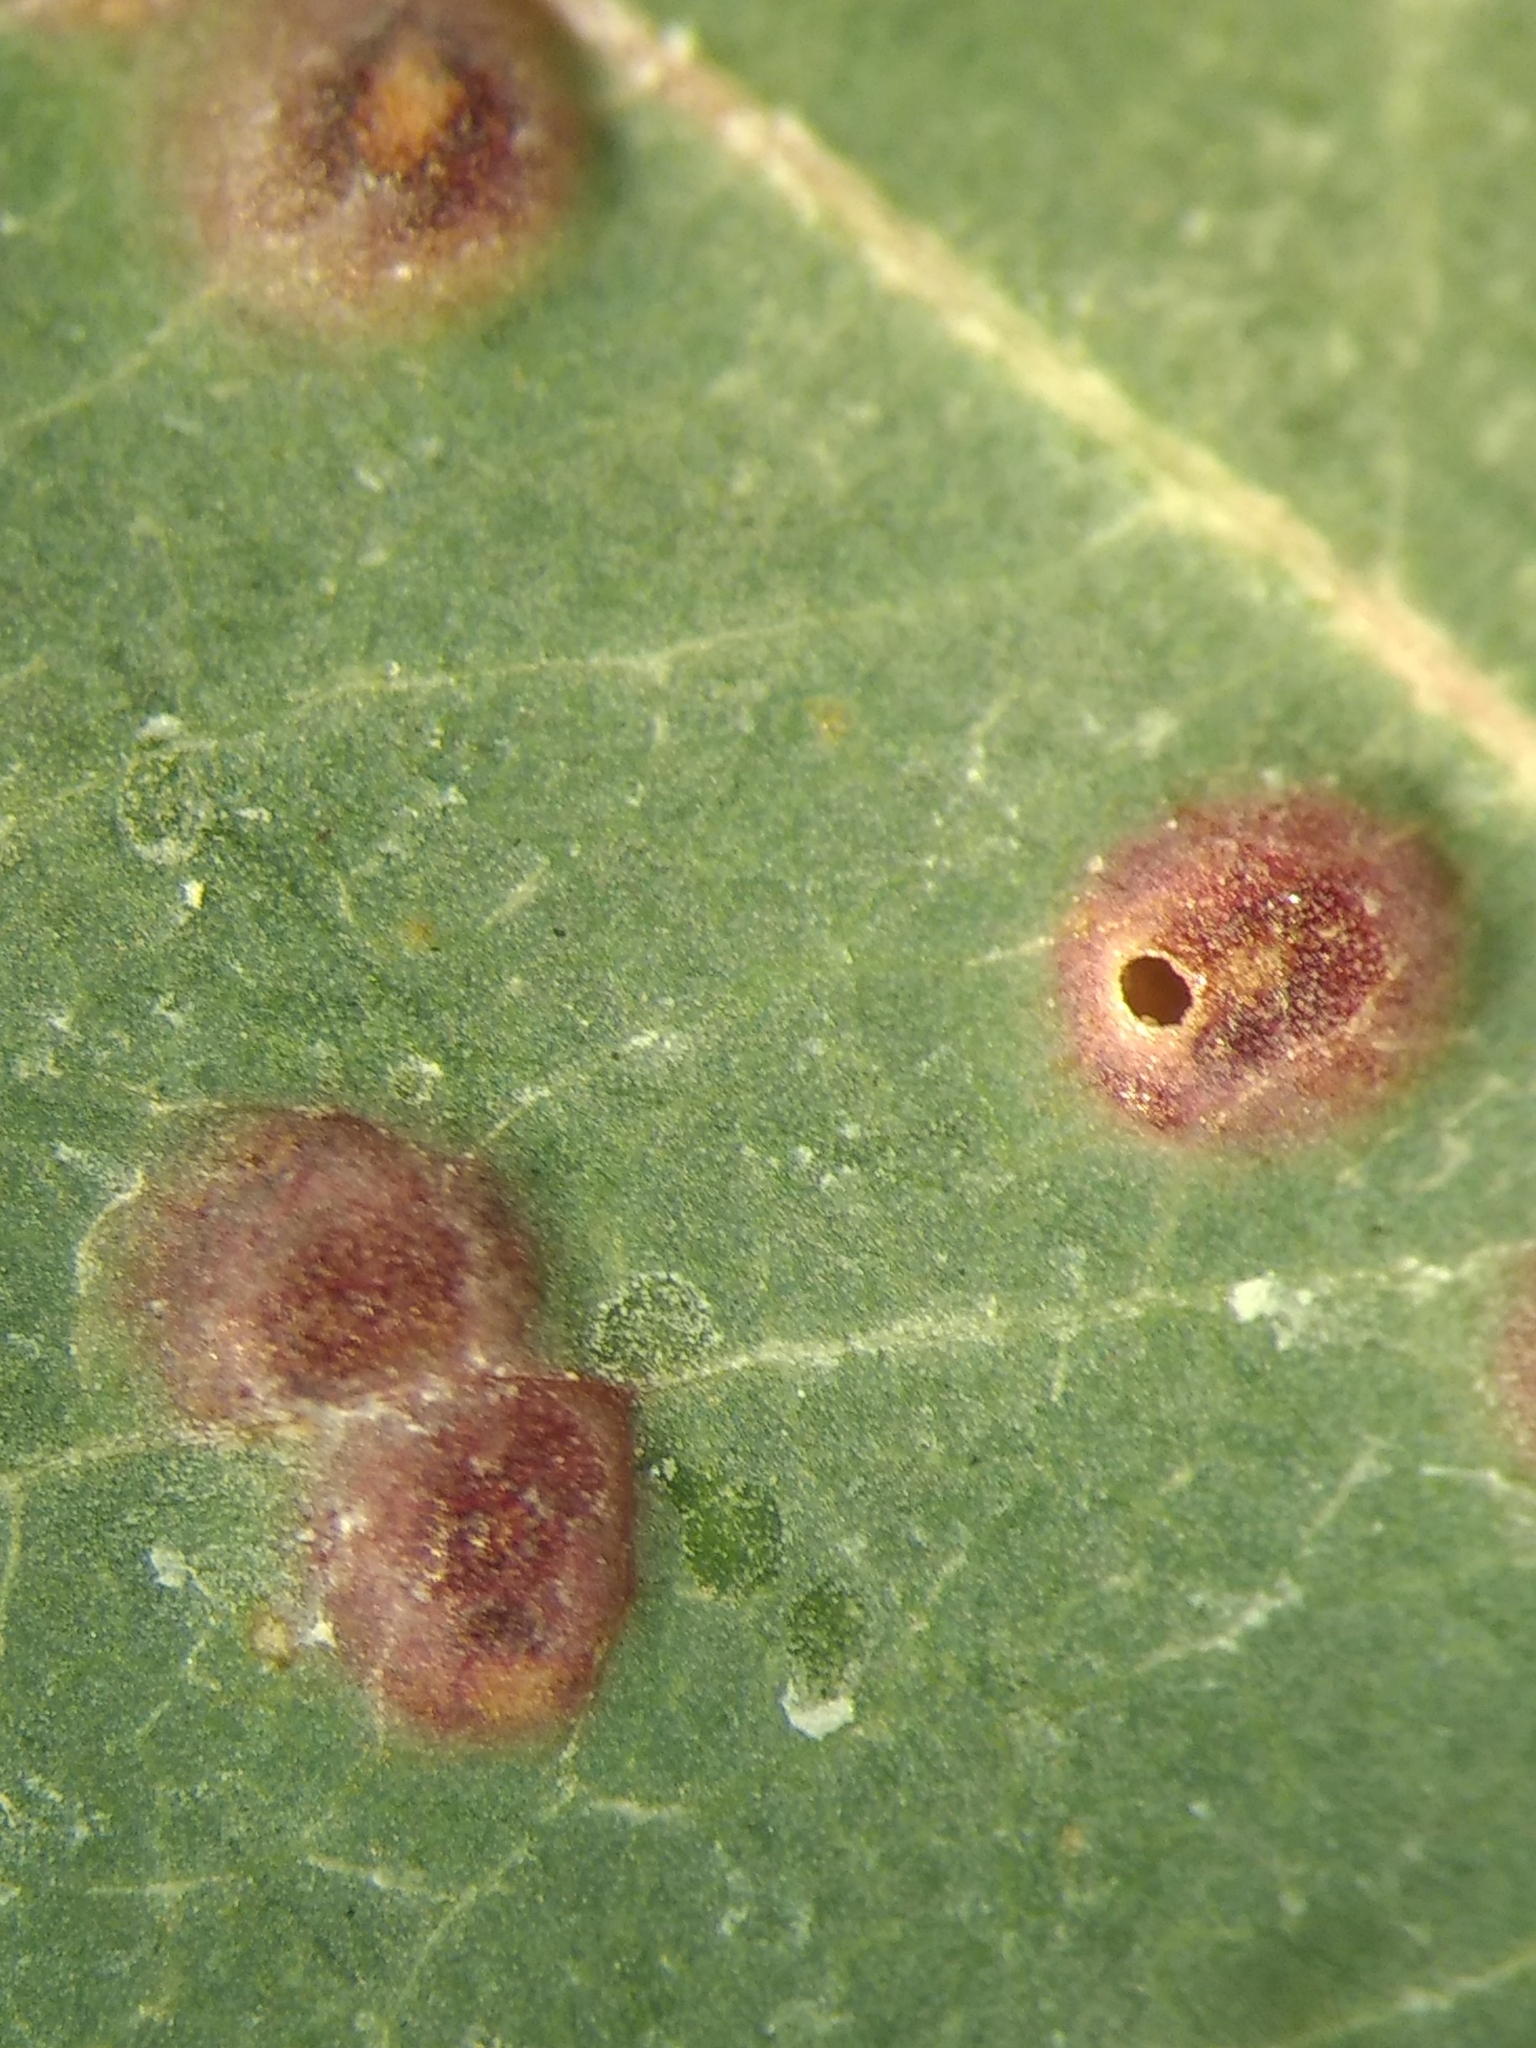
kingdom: Animalia
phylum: Arthropoda
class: Insecta
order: Hymenoptera
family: Eulophidae
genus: Ophelimus
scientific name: Ophelimus maskelli
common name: Gall wasp
